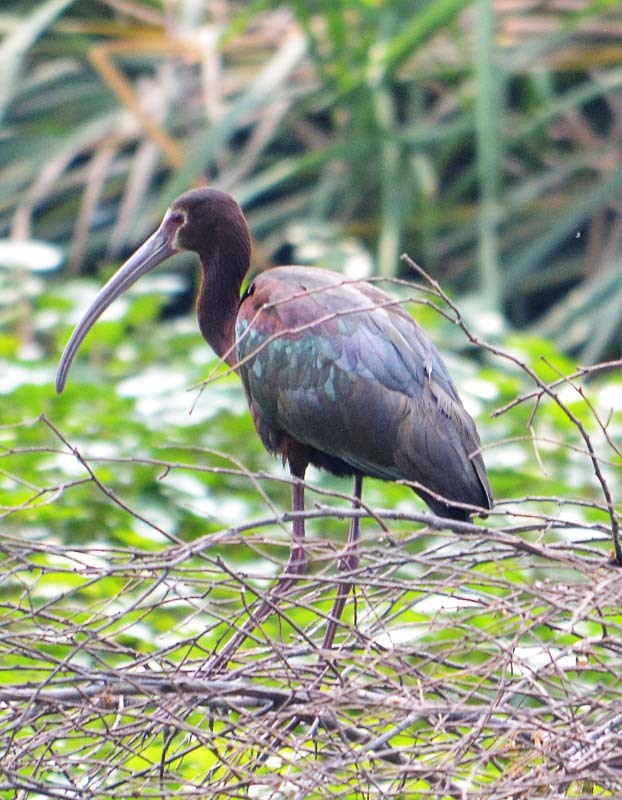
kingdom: Animalia
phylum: Chordata
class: Aves
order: Pelecaniformes
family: Threskiornithidae
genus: Plegadis
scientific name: Plegadis chihi
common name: White-faced ibis
